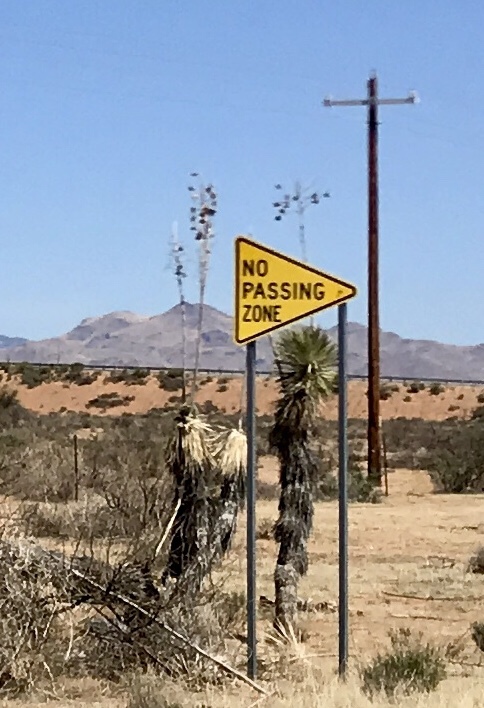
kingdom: Plantae
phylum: Tracheophyta
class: Liliopsida
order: Asparagales
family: Asparagaceae
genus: Yucca
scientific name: Yucca elata
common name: Palmella
